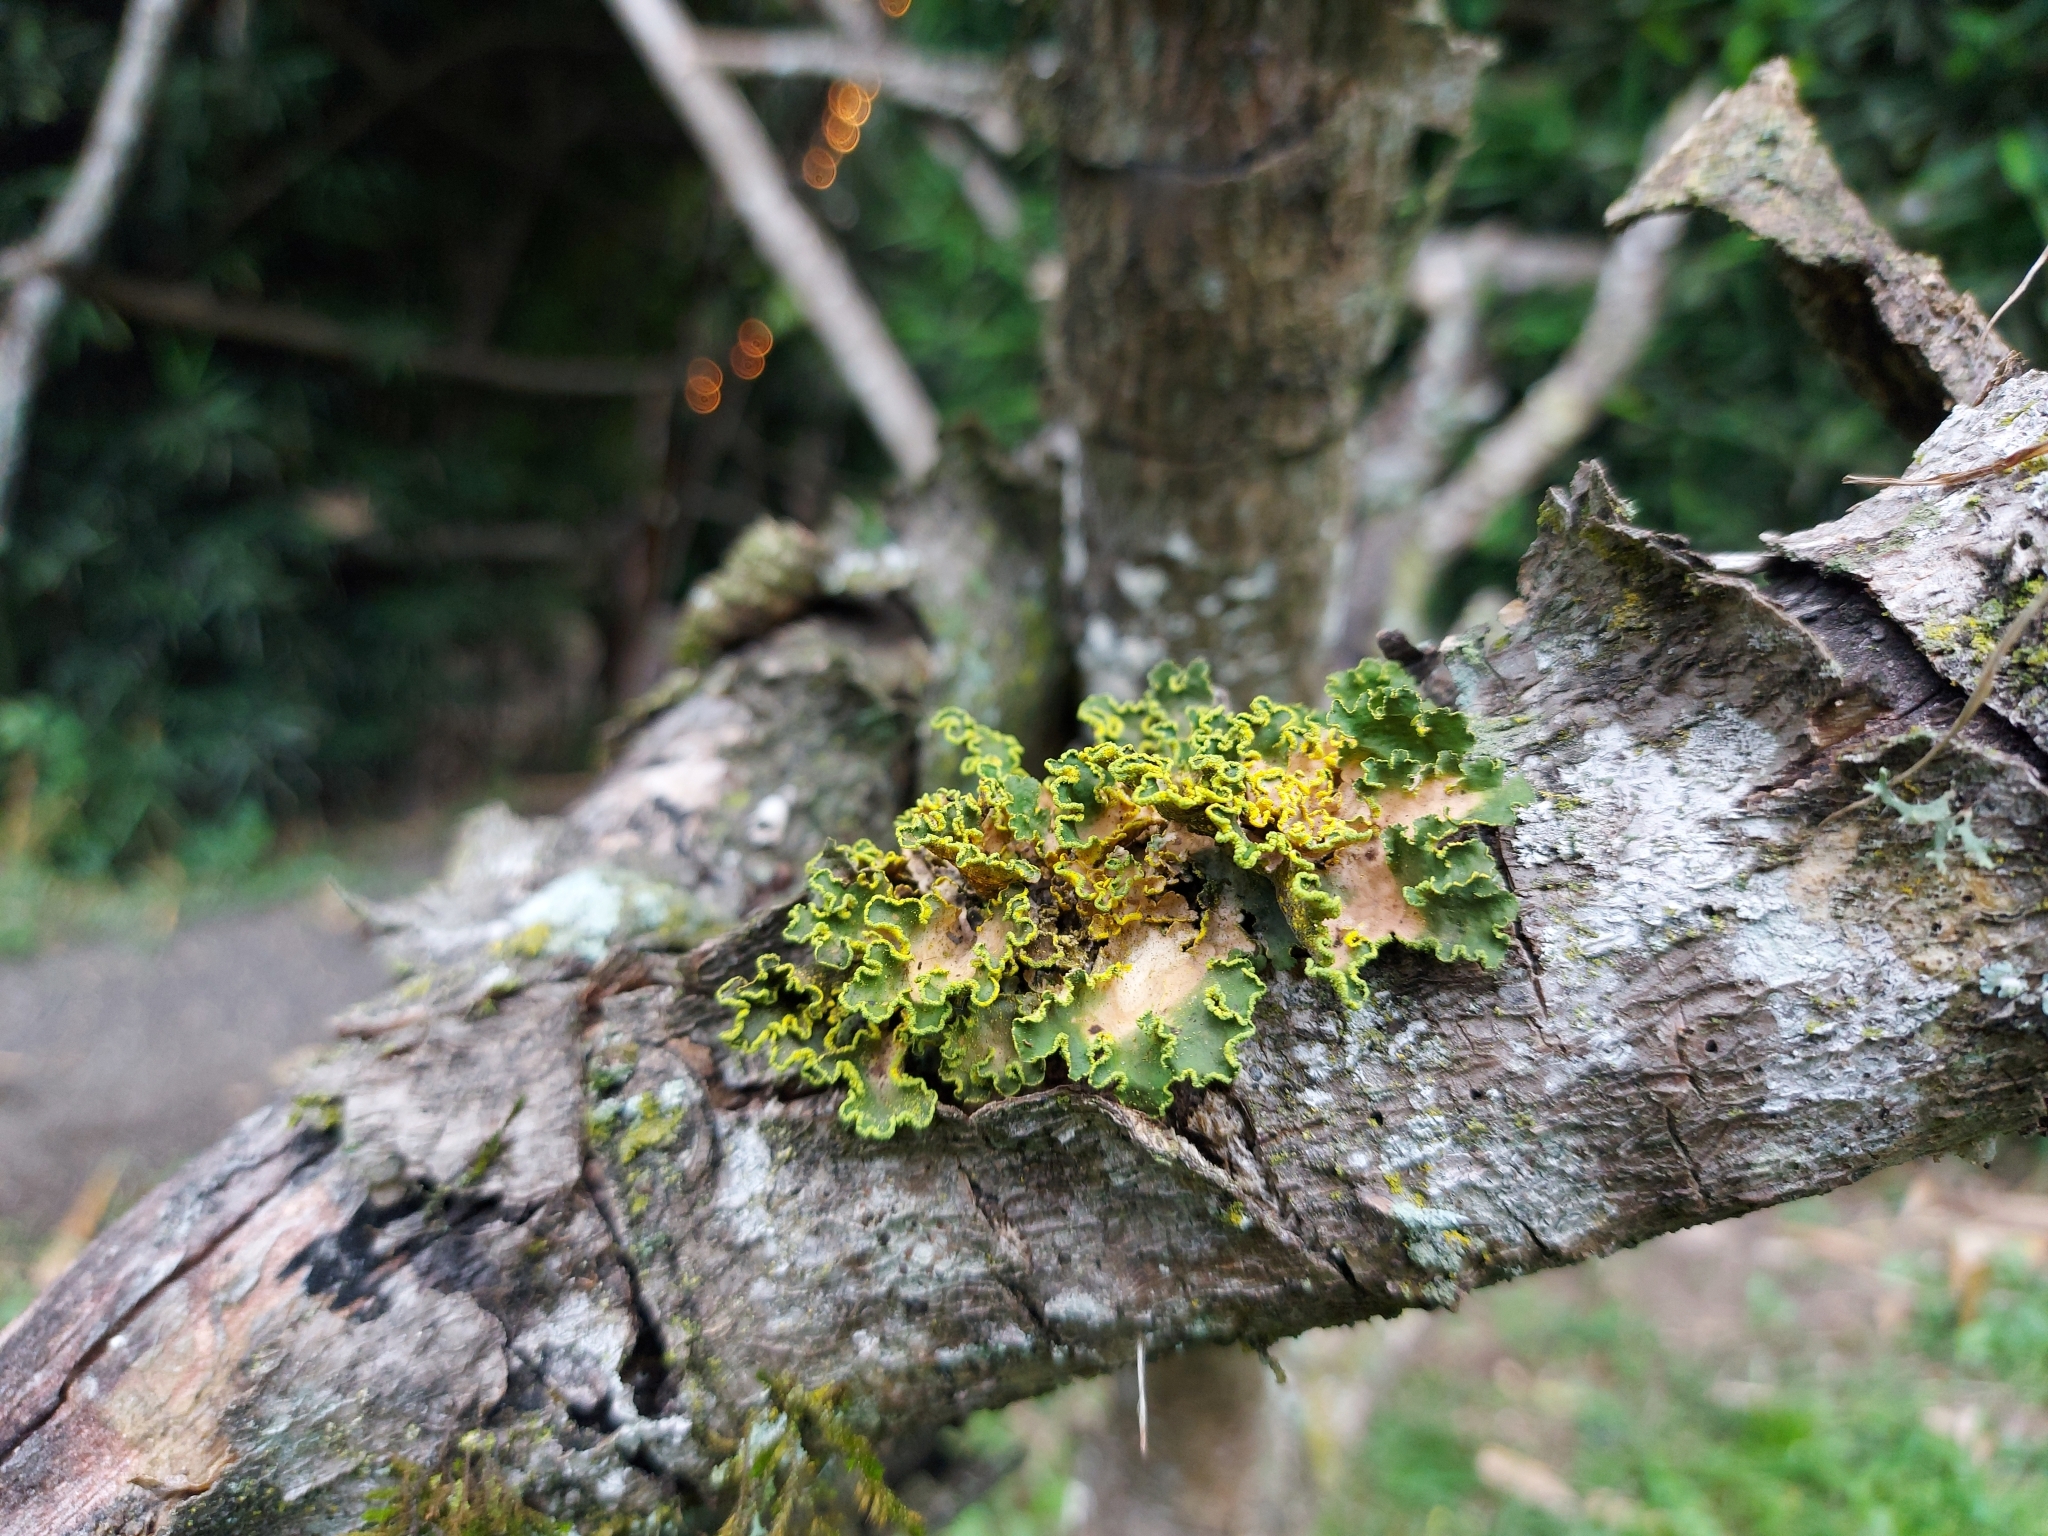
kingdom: Fungi
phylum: Ascomycota
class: Lecanoromycetes
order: Peltigerales
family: Lobariaceae
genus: Pseudocyphellaria
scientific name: Pseudocyphellaria aurata
